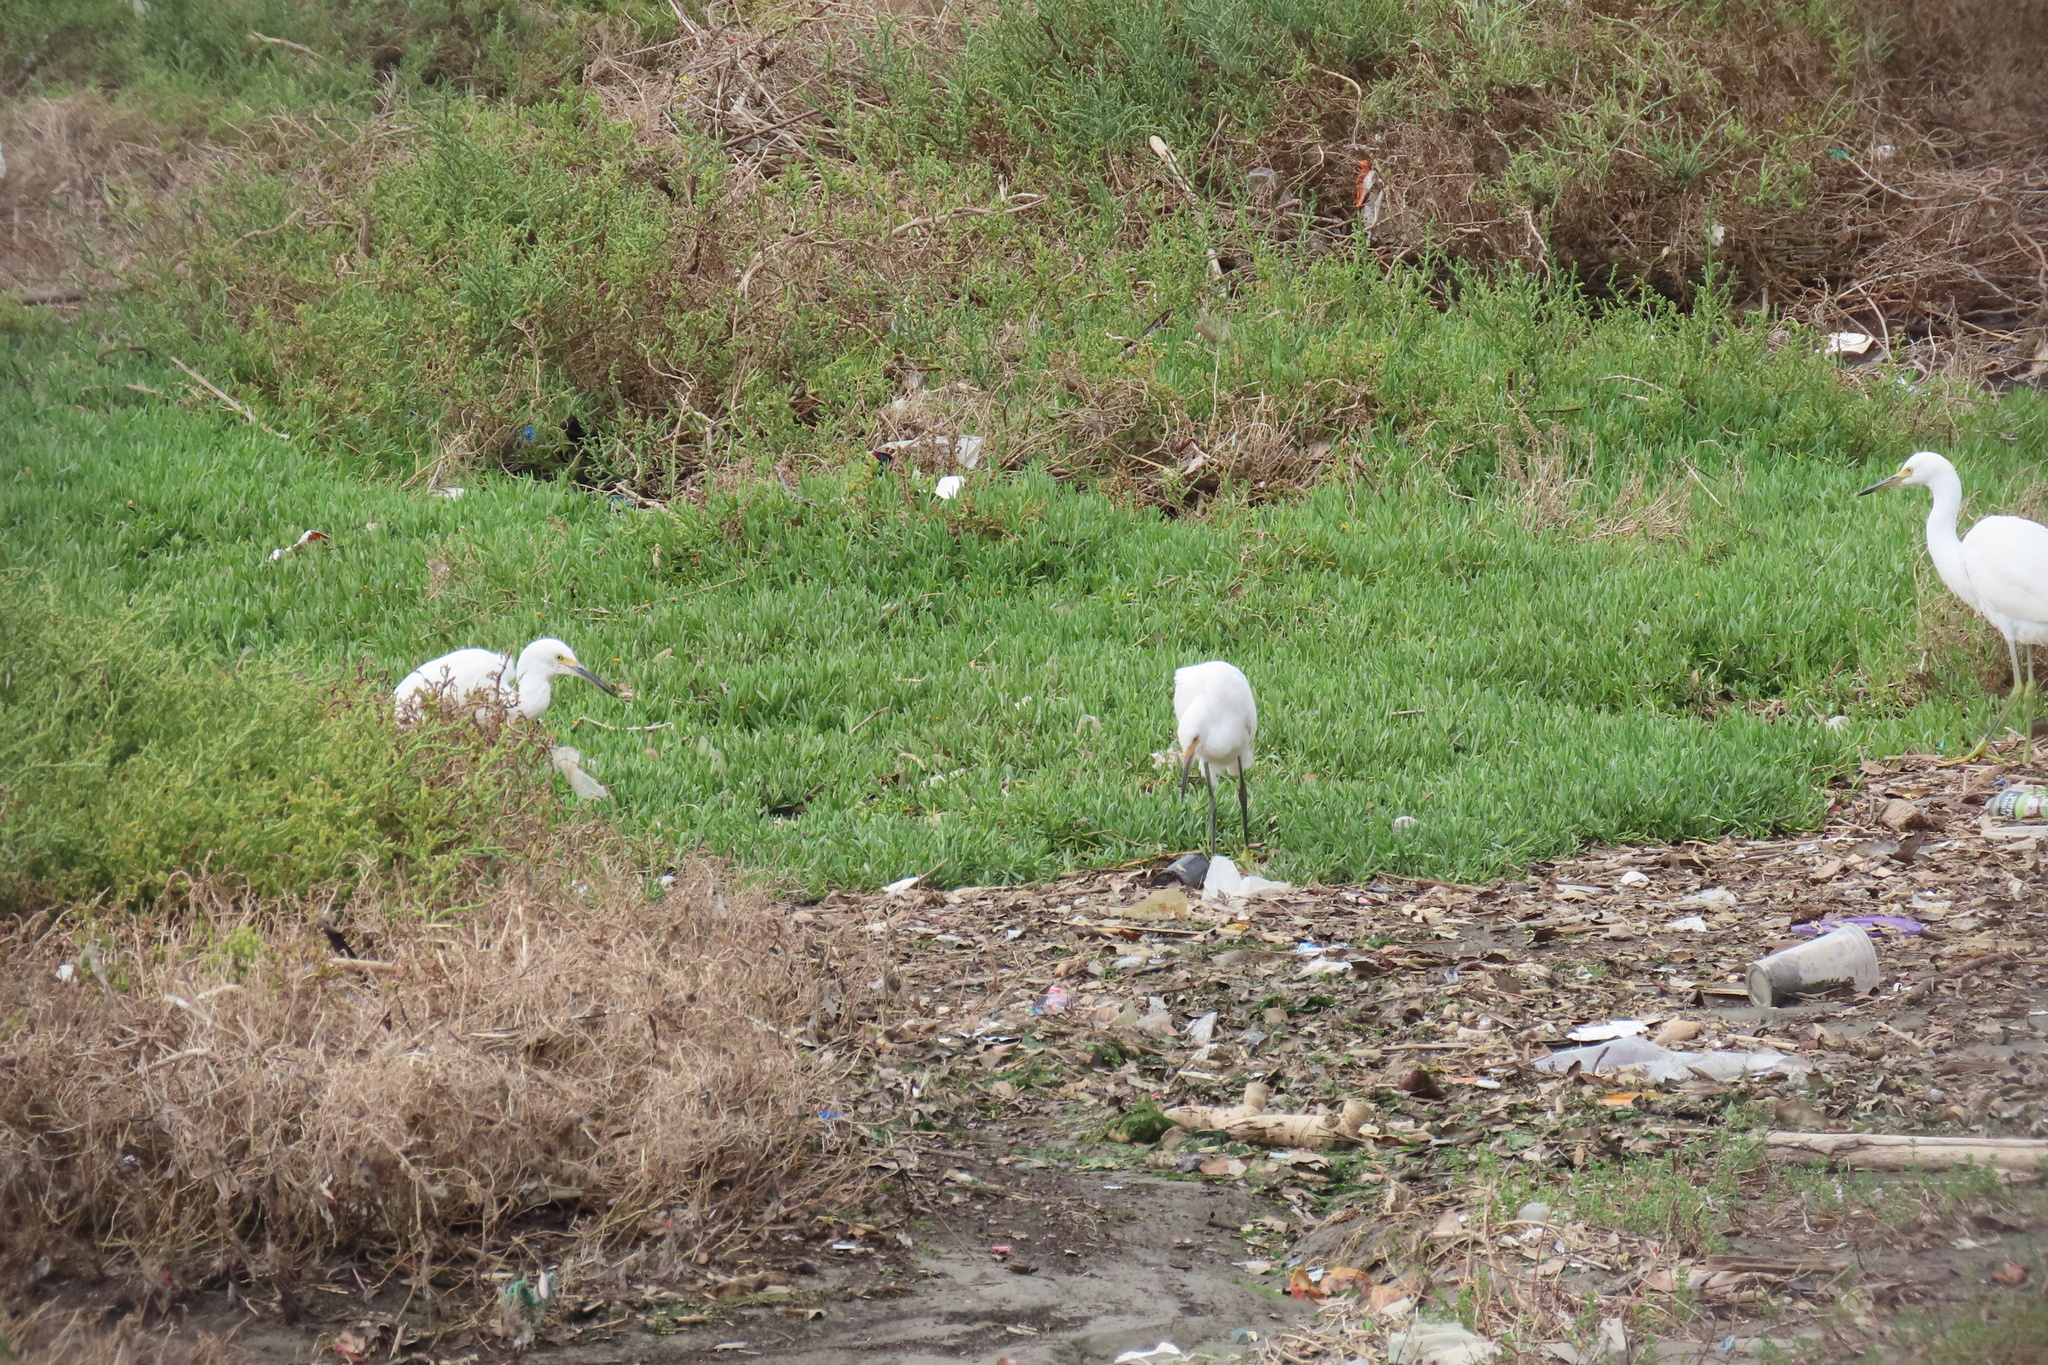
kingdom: Animalia
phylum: Chordata
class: Aves
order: Pelecaniformes
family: Ardeidae
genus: Egretta
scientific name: Egretta thula
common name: Snowy egret
